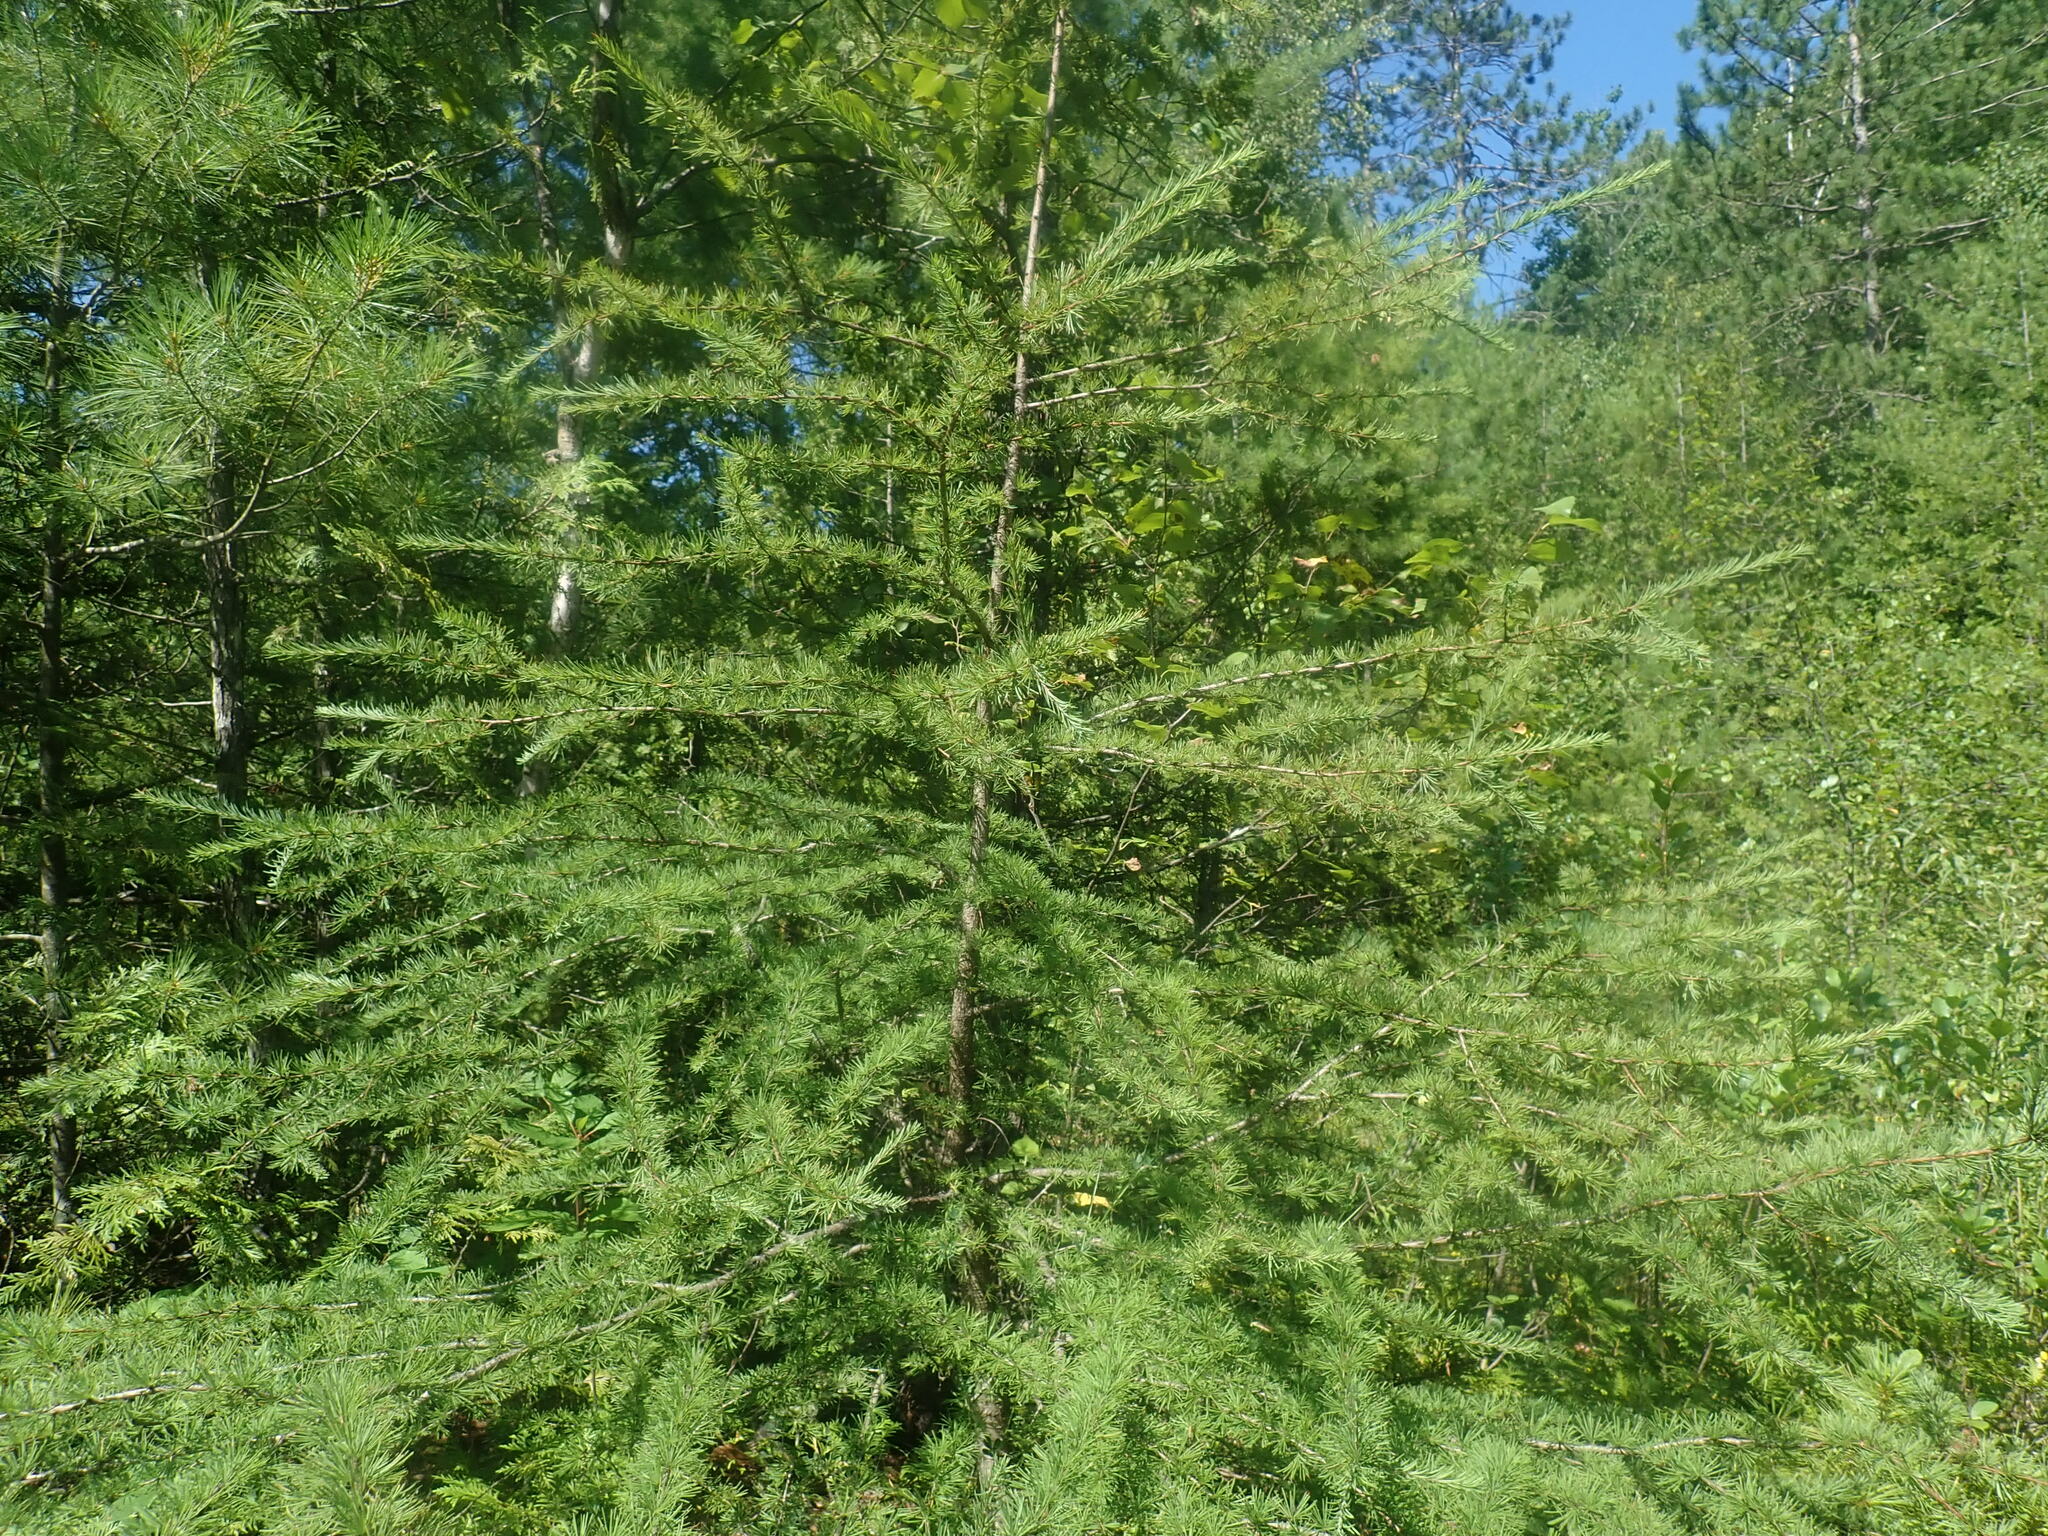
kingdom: Plantae
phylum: Tracheophyta
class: Pinopsida
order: Pinales
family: Pinaceae
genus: Larix
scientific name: Larix laricina
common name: American larch
